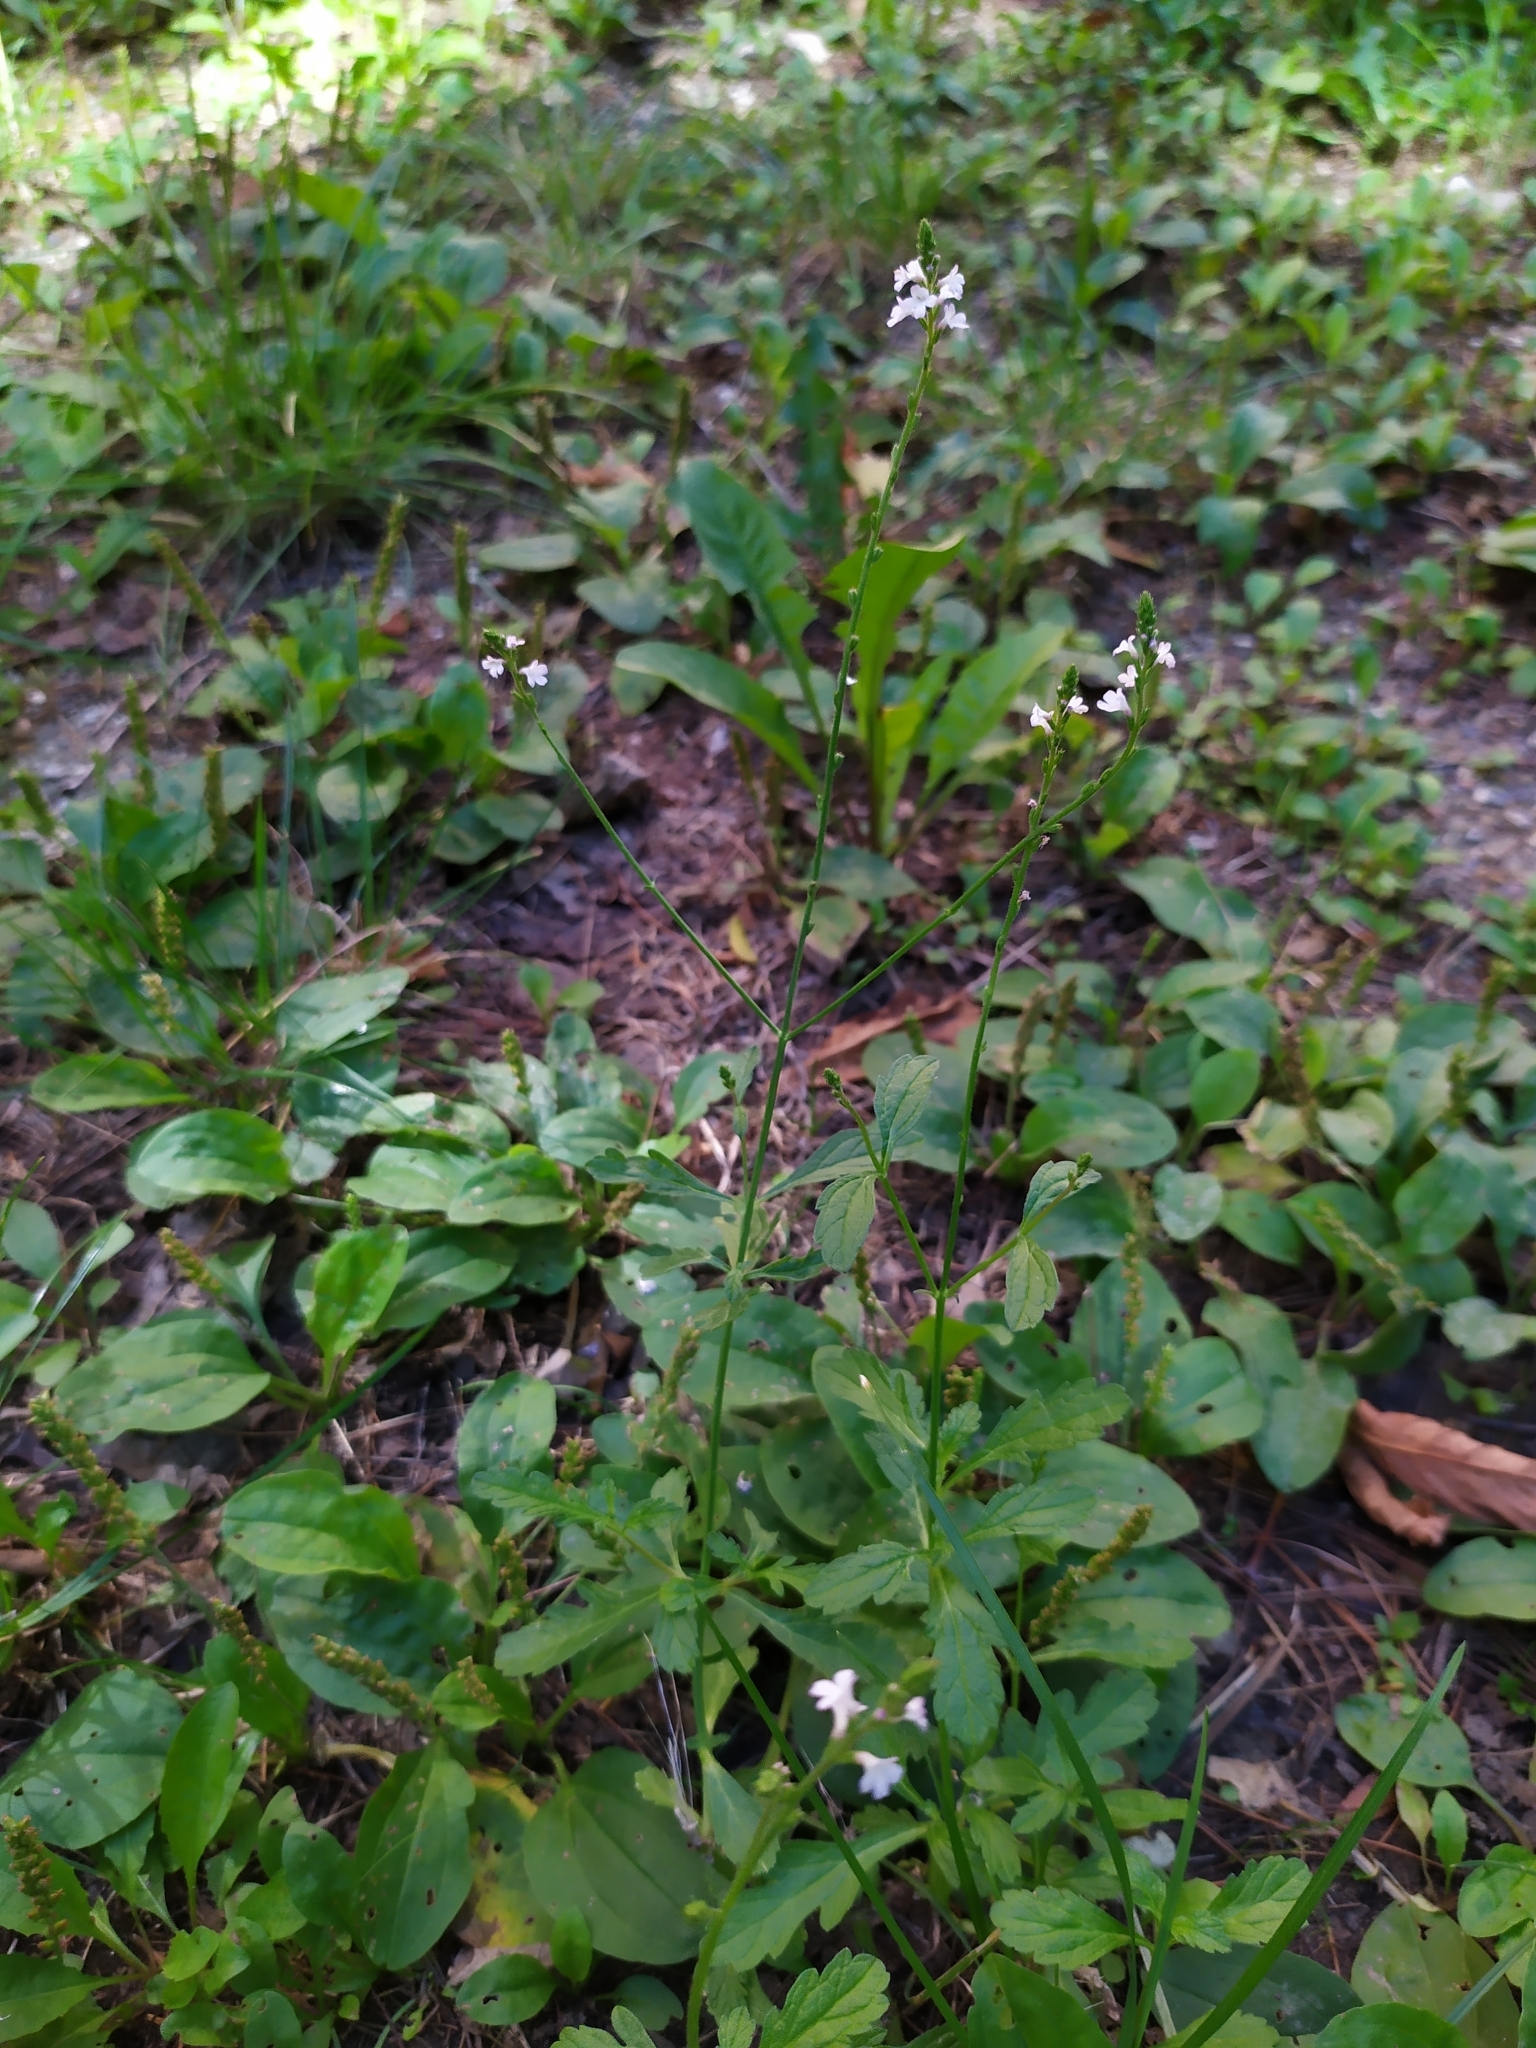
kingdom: Plantae
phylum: Tracheophyta
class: Magnoliopsida
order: Lamiales
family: Verbenaceae
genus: Verbena
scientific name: Verbena officinalis
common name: Vervain
